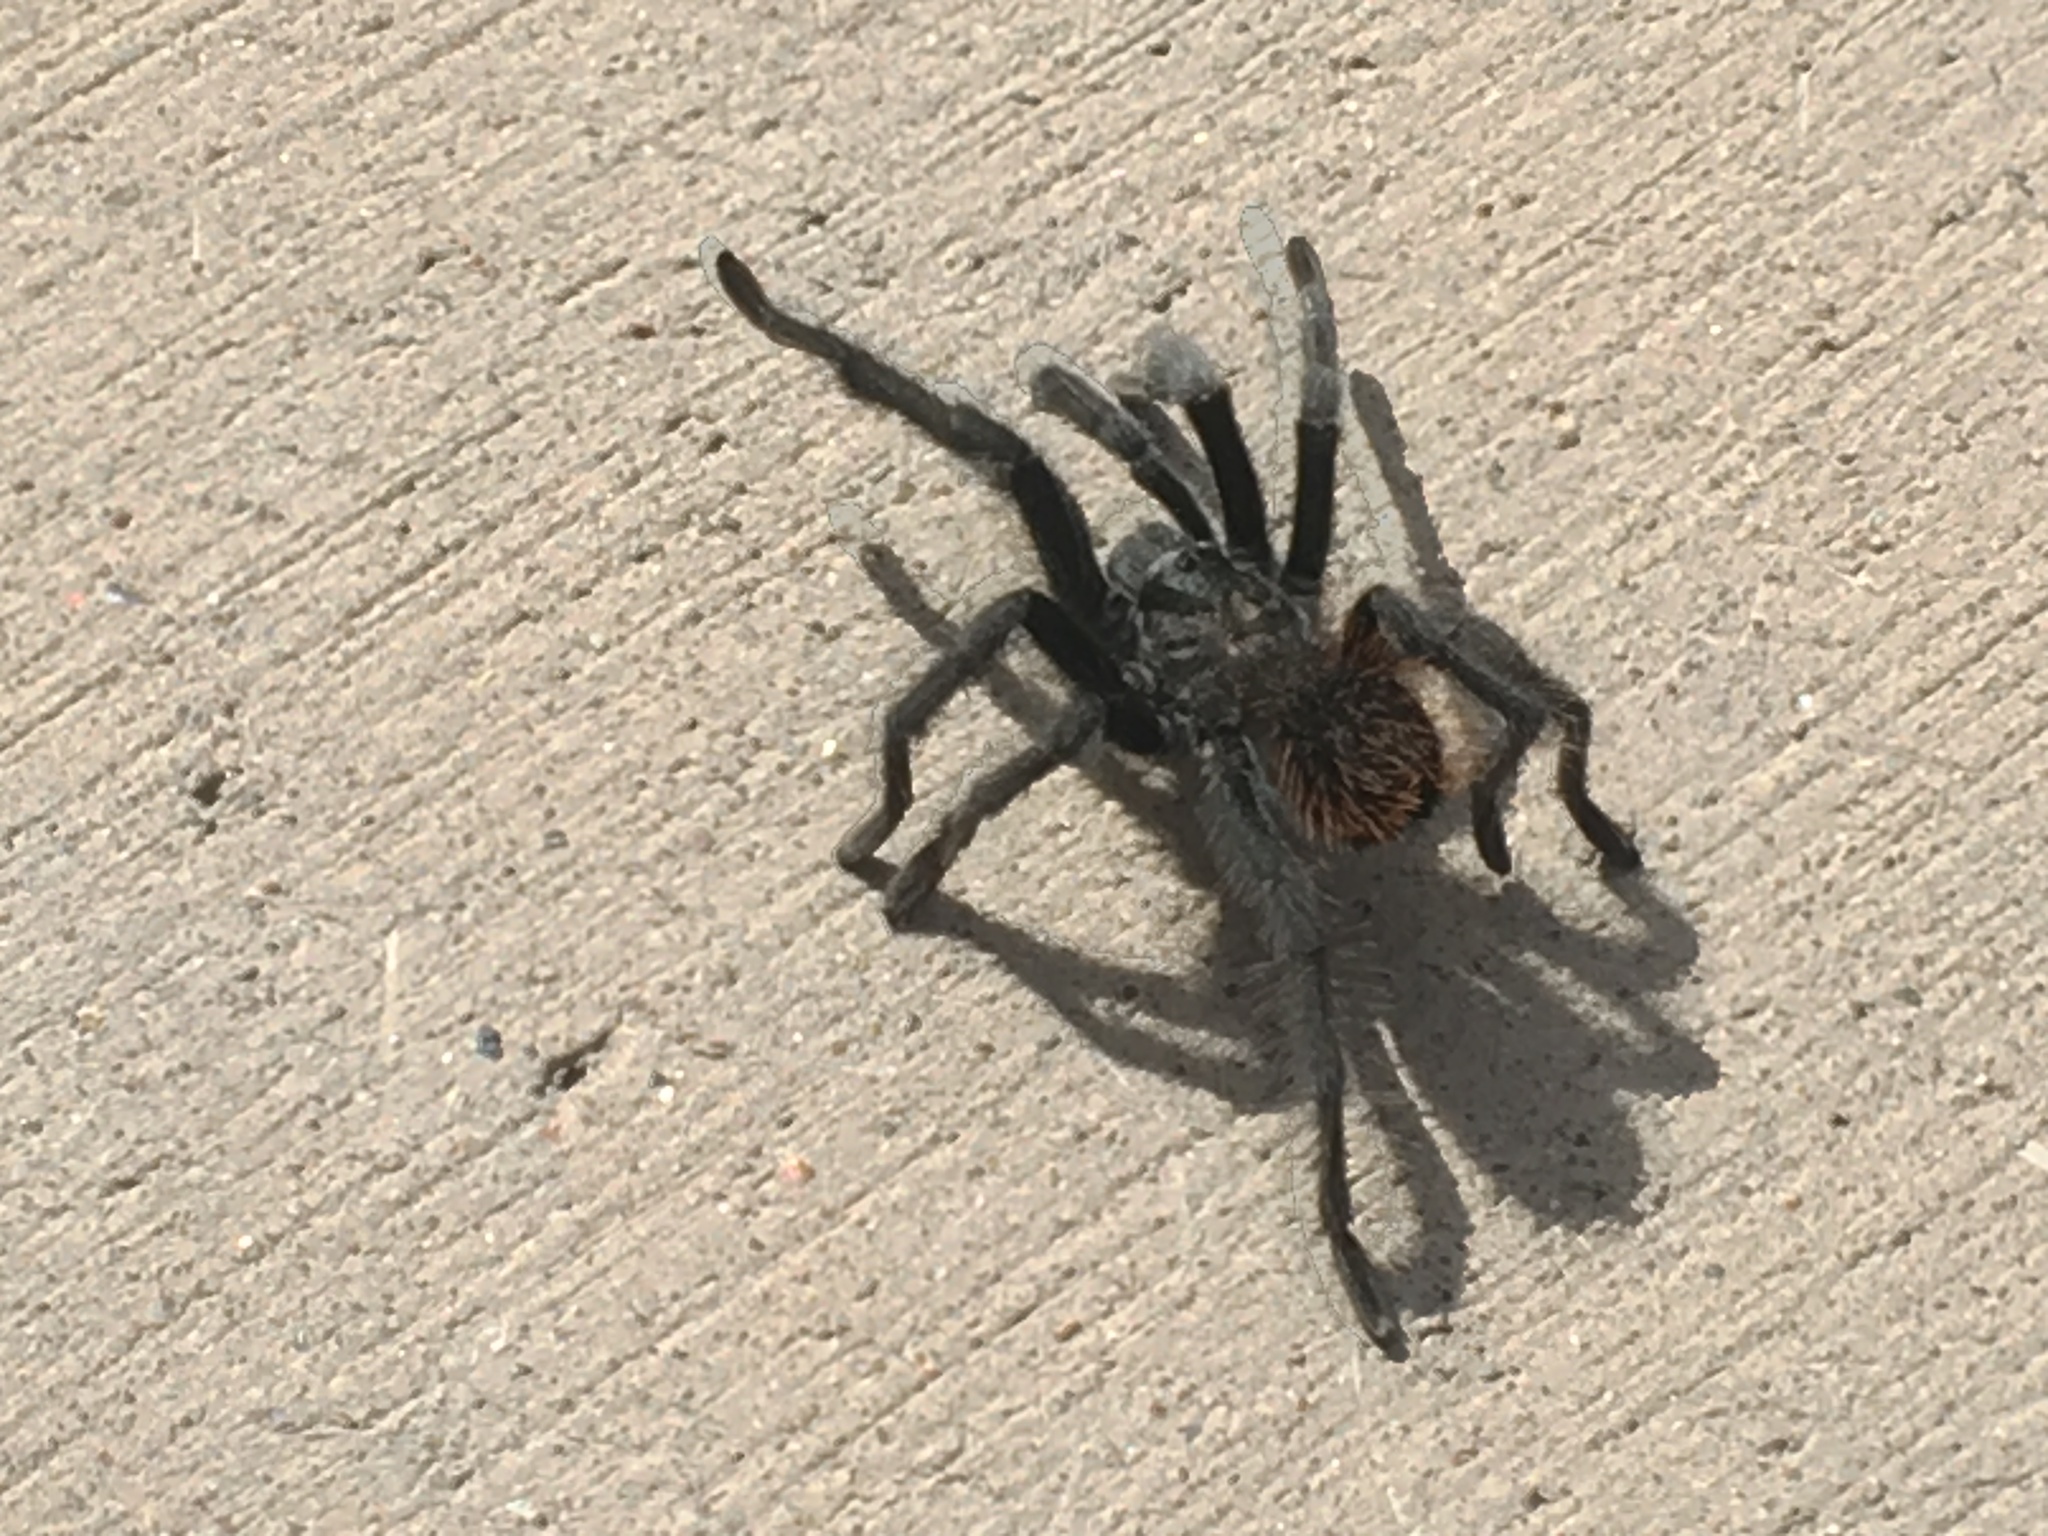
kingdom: Animalia
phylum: Arthropoda
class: Arachnida
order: Araneae
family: Theraphosidae
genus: Aphonopelma
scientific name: Aphonopelma marxi
